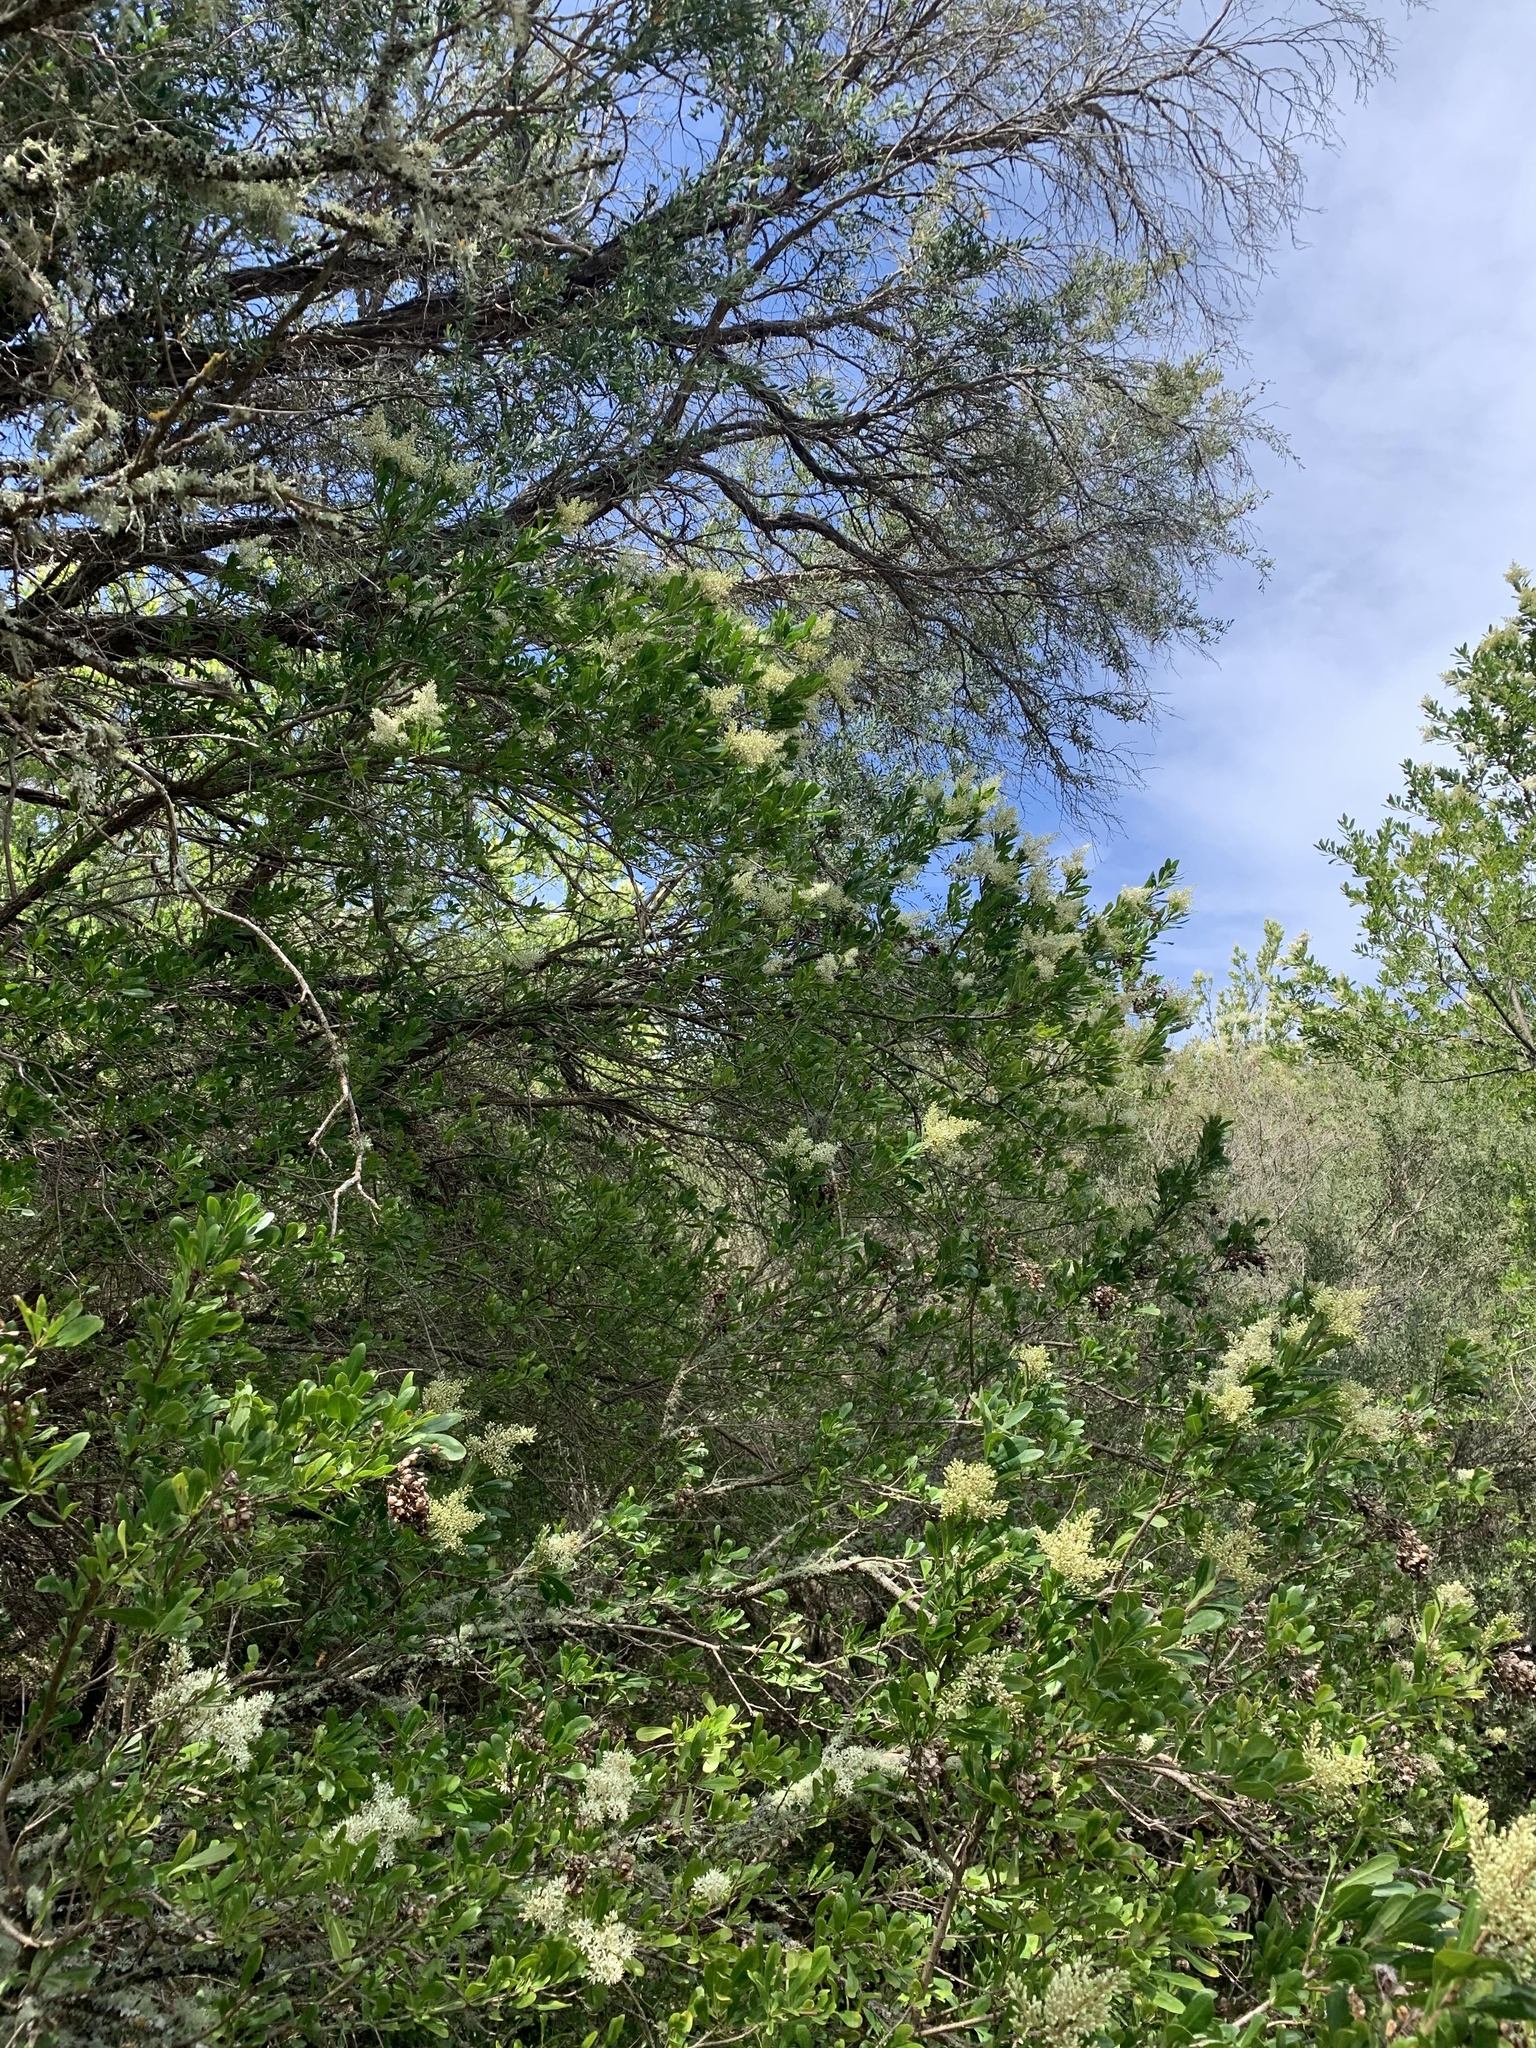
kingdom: Plantae
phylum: Tracheophyta
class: Magnoliopsida
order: Apiales
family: Pittosporaceae
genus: Bursaria
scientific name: Bursaria spinosa
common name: Australian blackthorn
